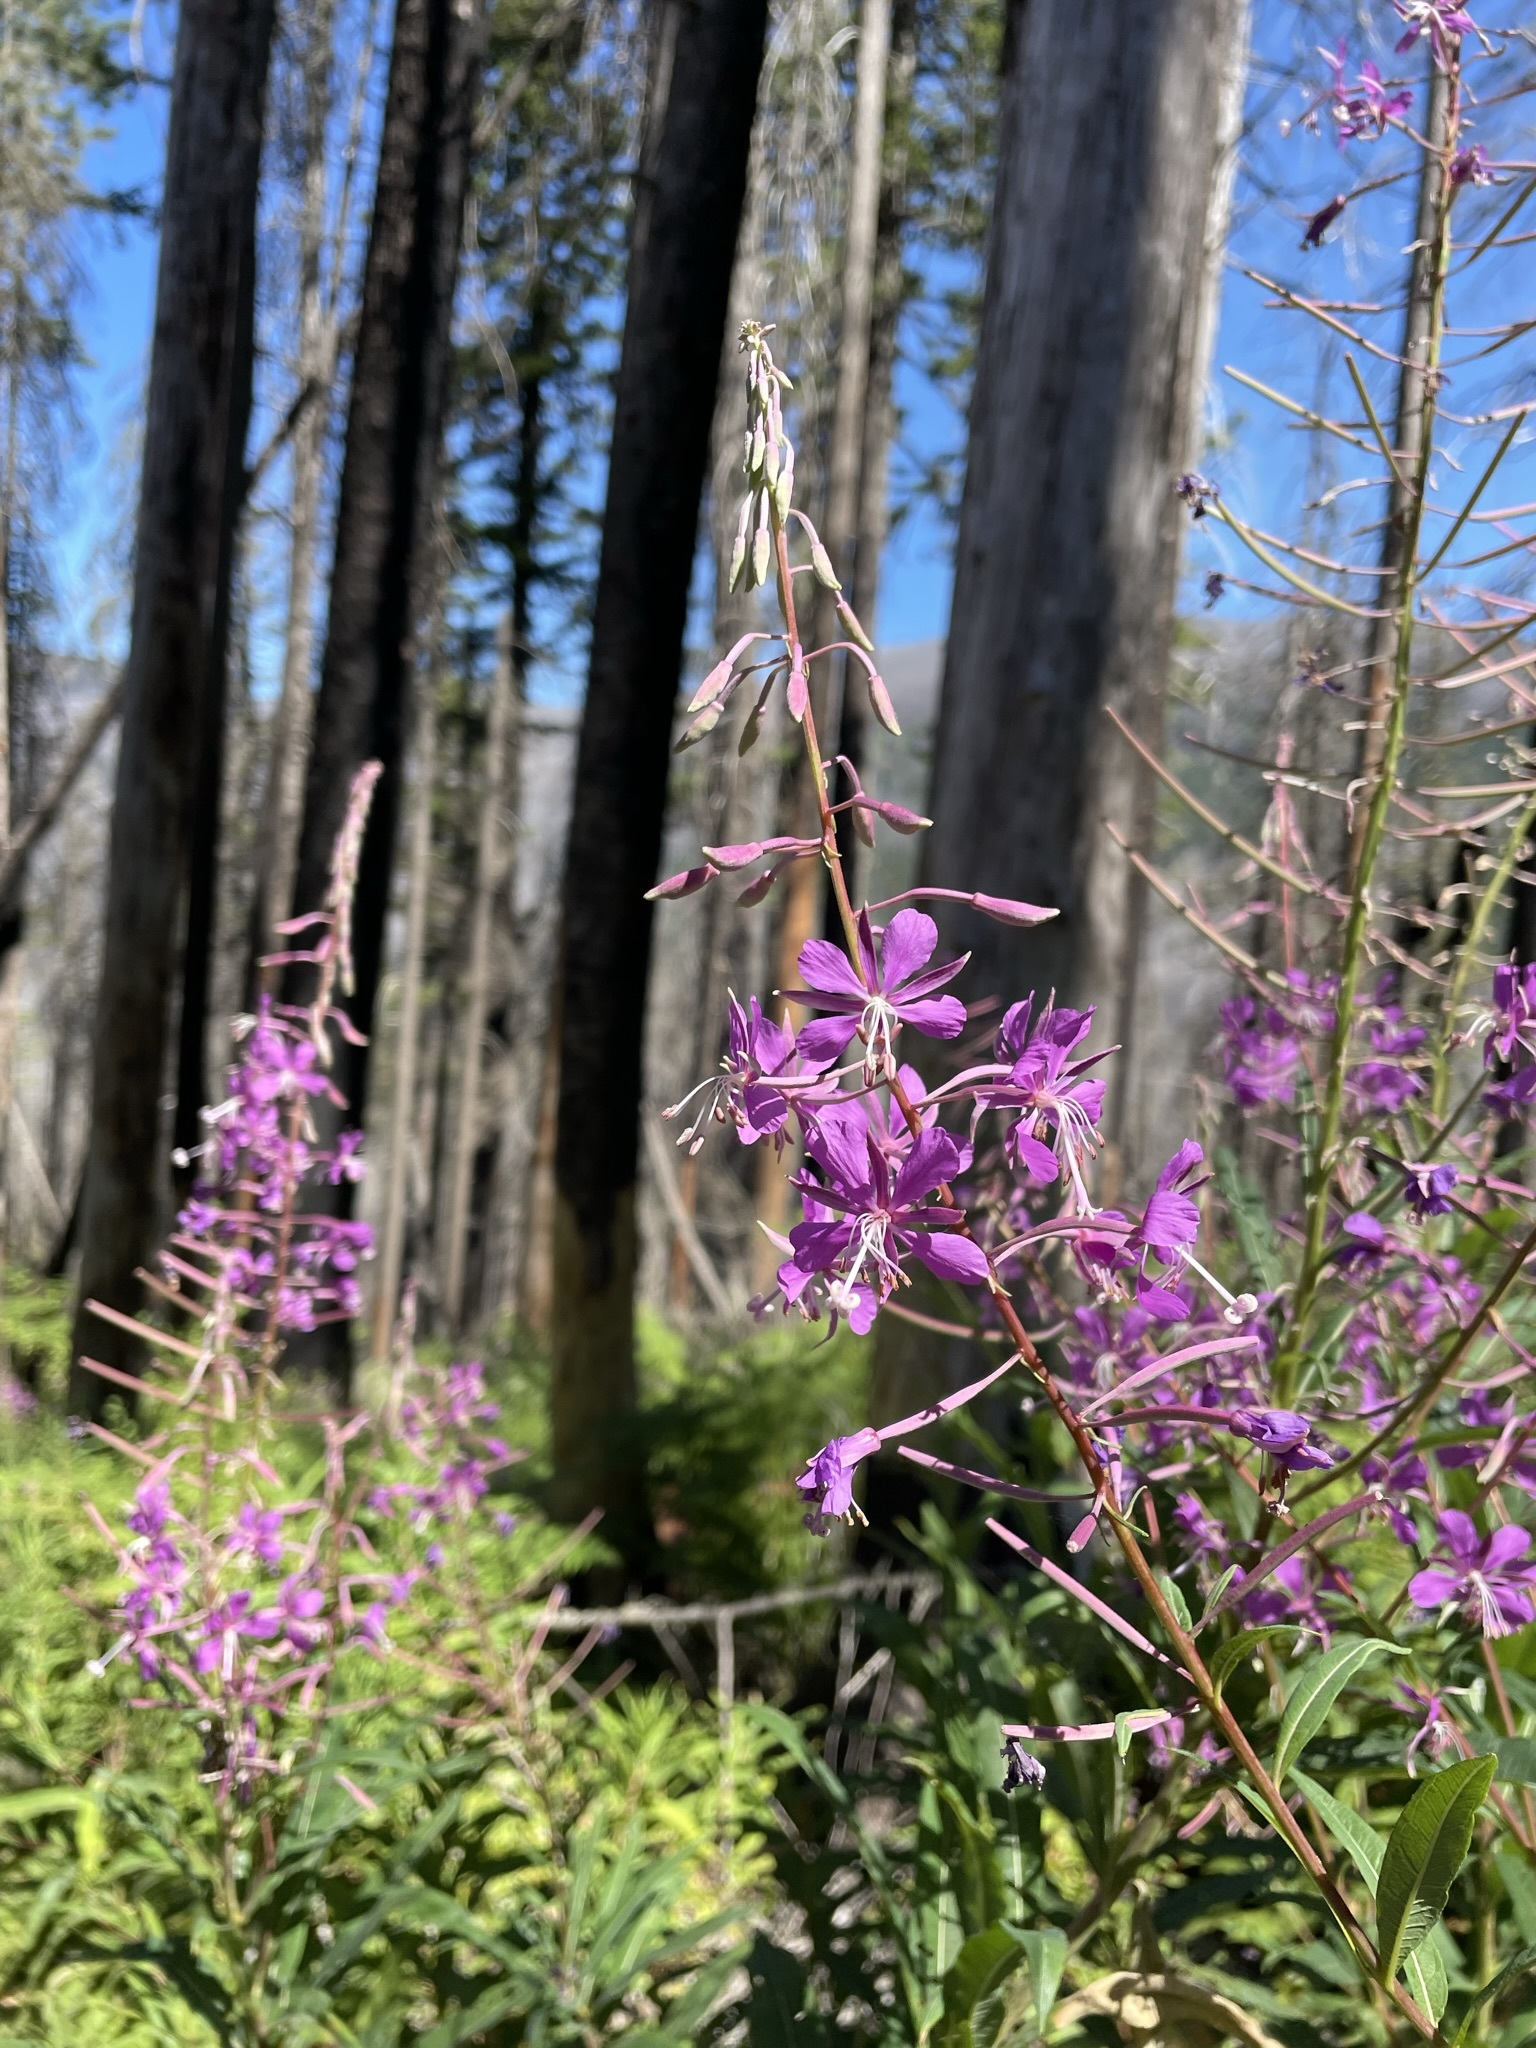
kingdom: Plantae
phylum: Tracheophyta
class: Magnoliopsida
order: Myrtales
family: Onagraceae
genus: Chamaenerion
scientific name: Chamaenerion angustifolium
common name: Fireweed
